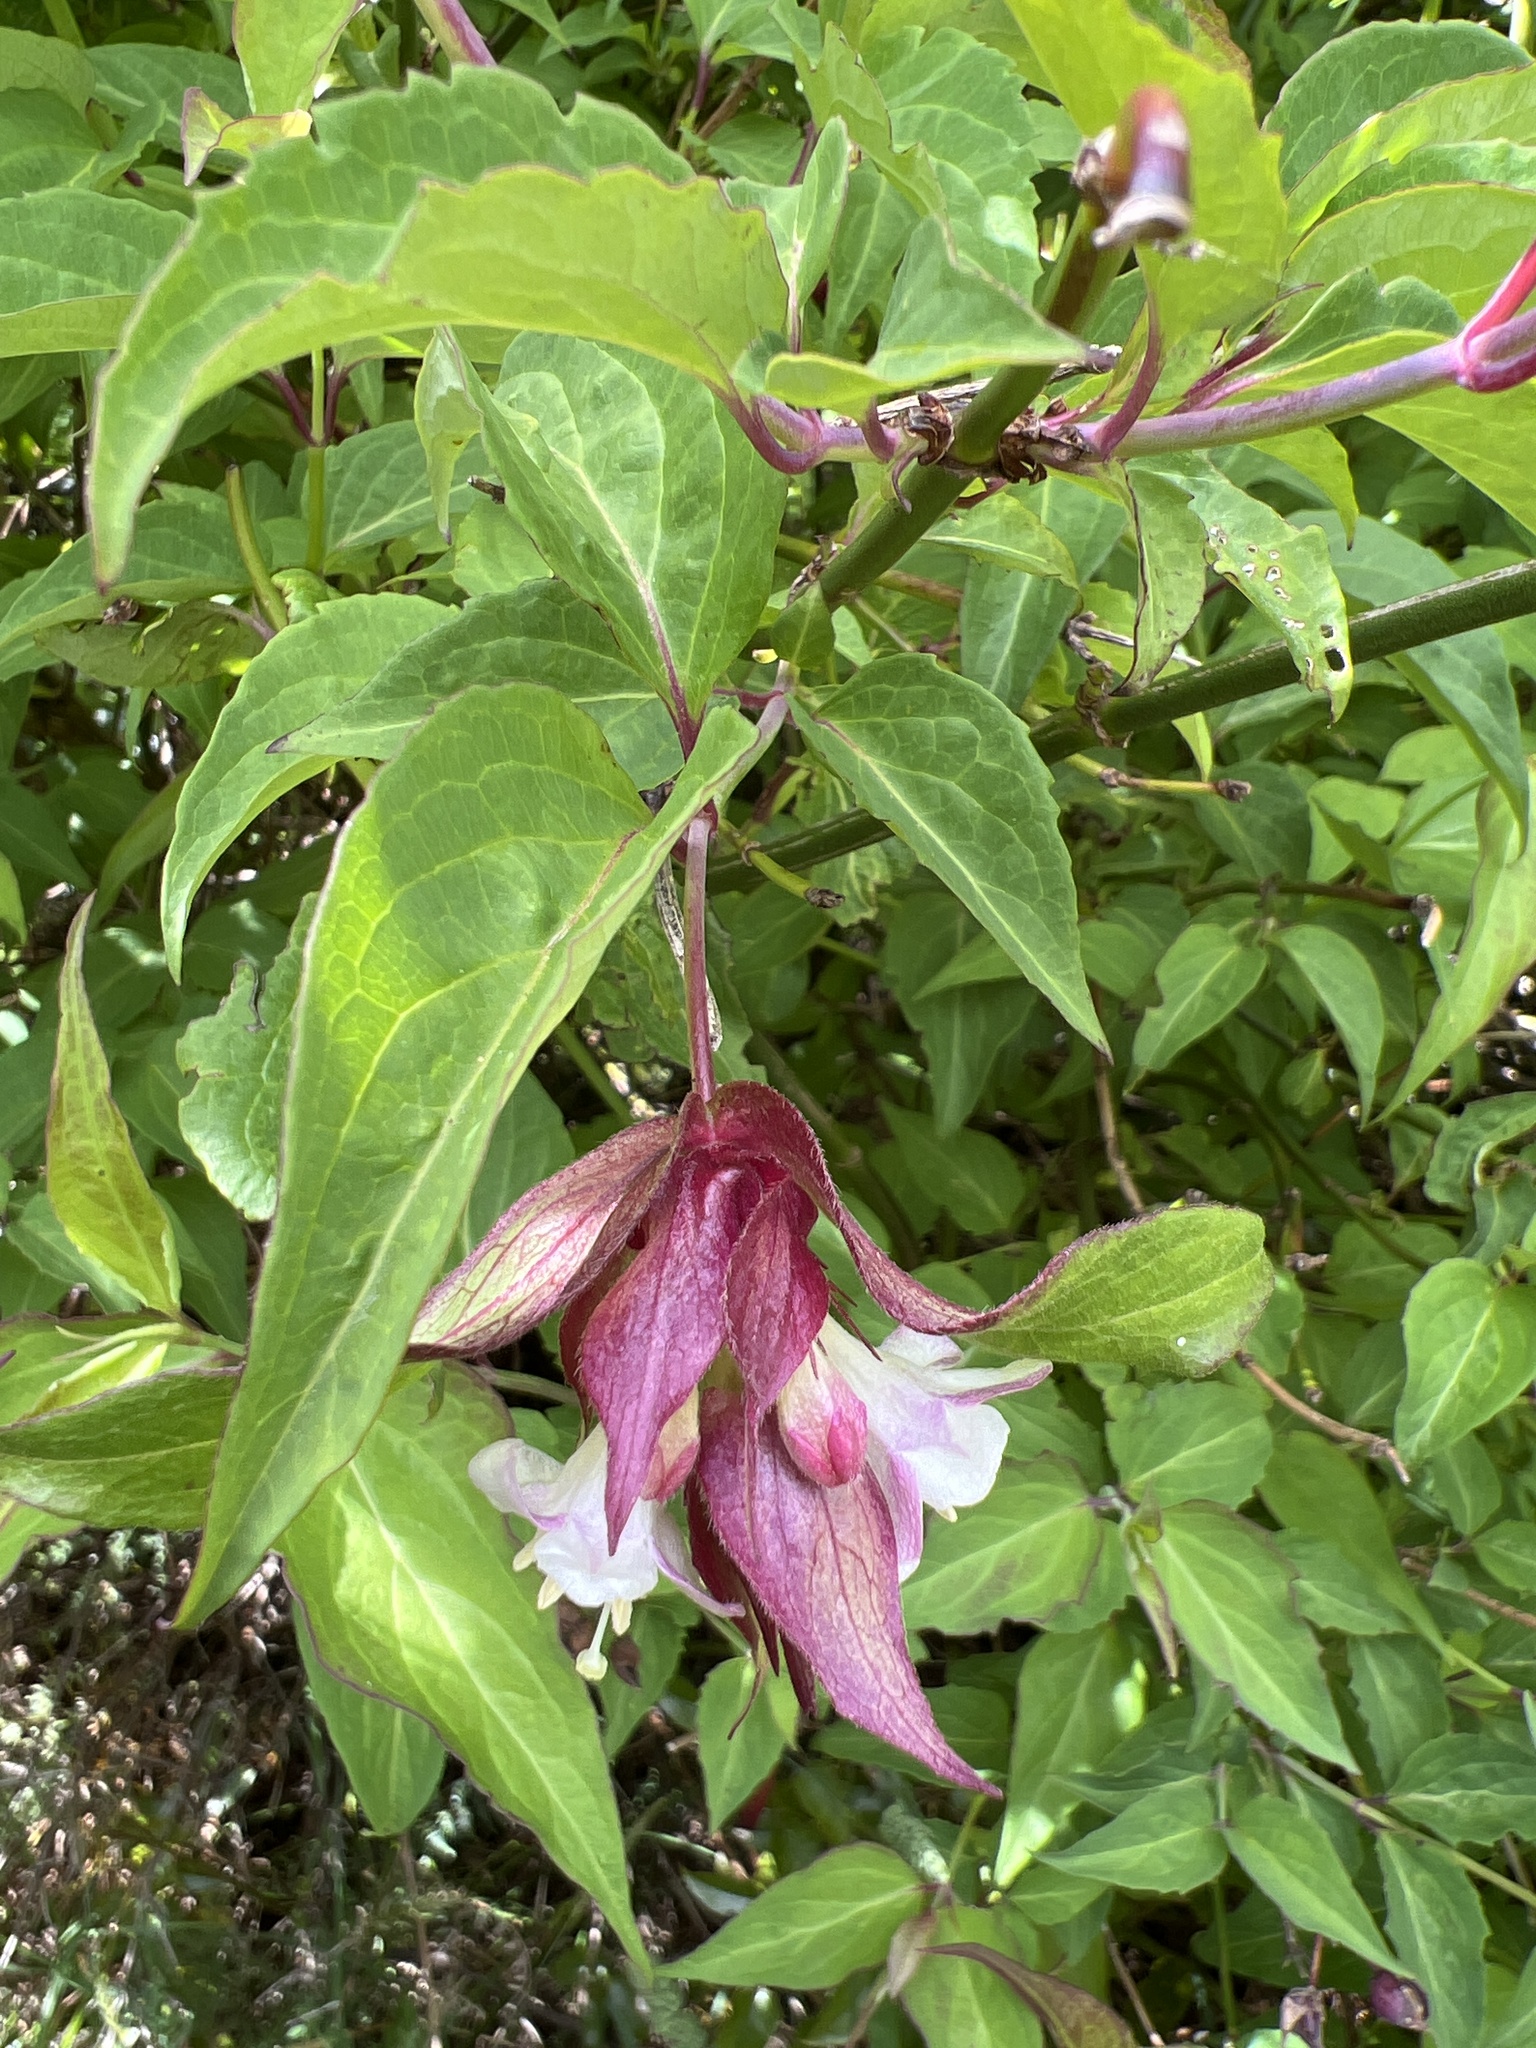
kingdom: Plantae
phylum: Tracheophyta
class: Magnoliopsida
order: Dipsacales
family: Caprifoliaceae
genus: Leycesteria
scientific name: Leycesteria formosa
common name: Himalayan honeysuckle
